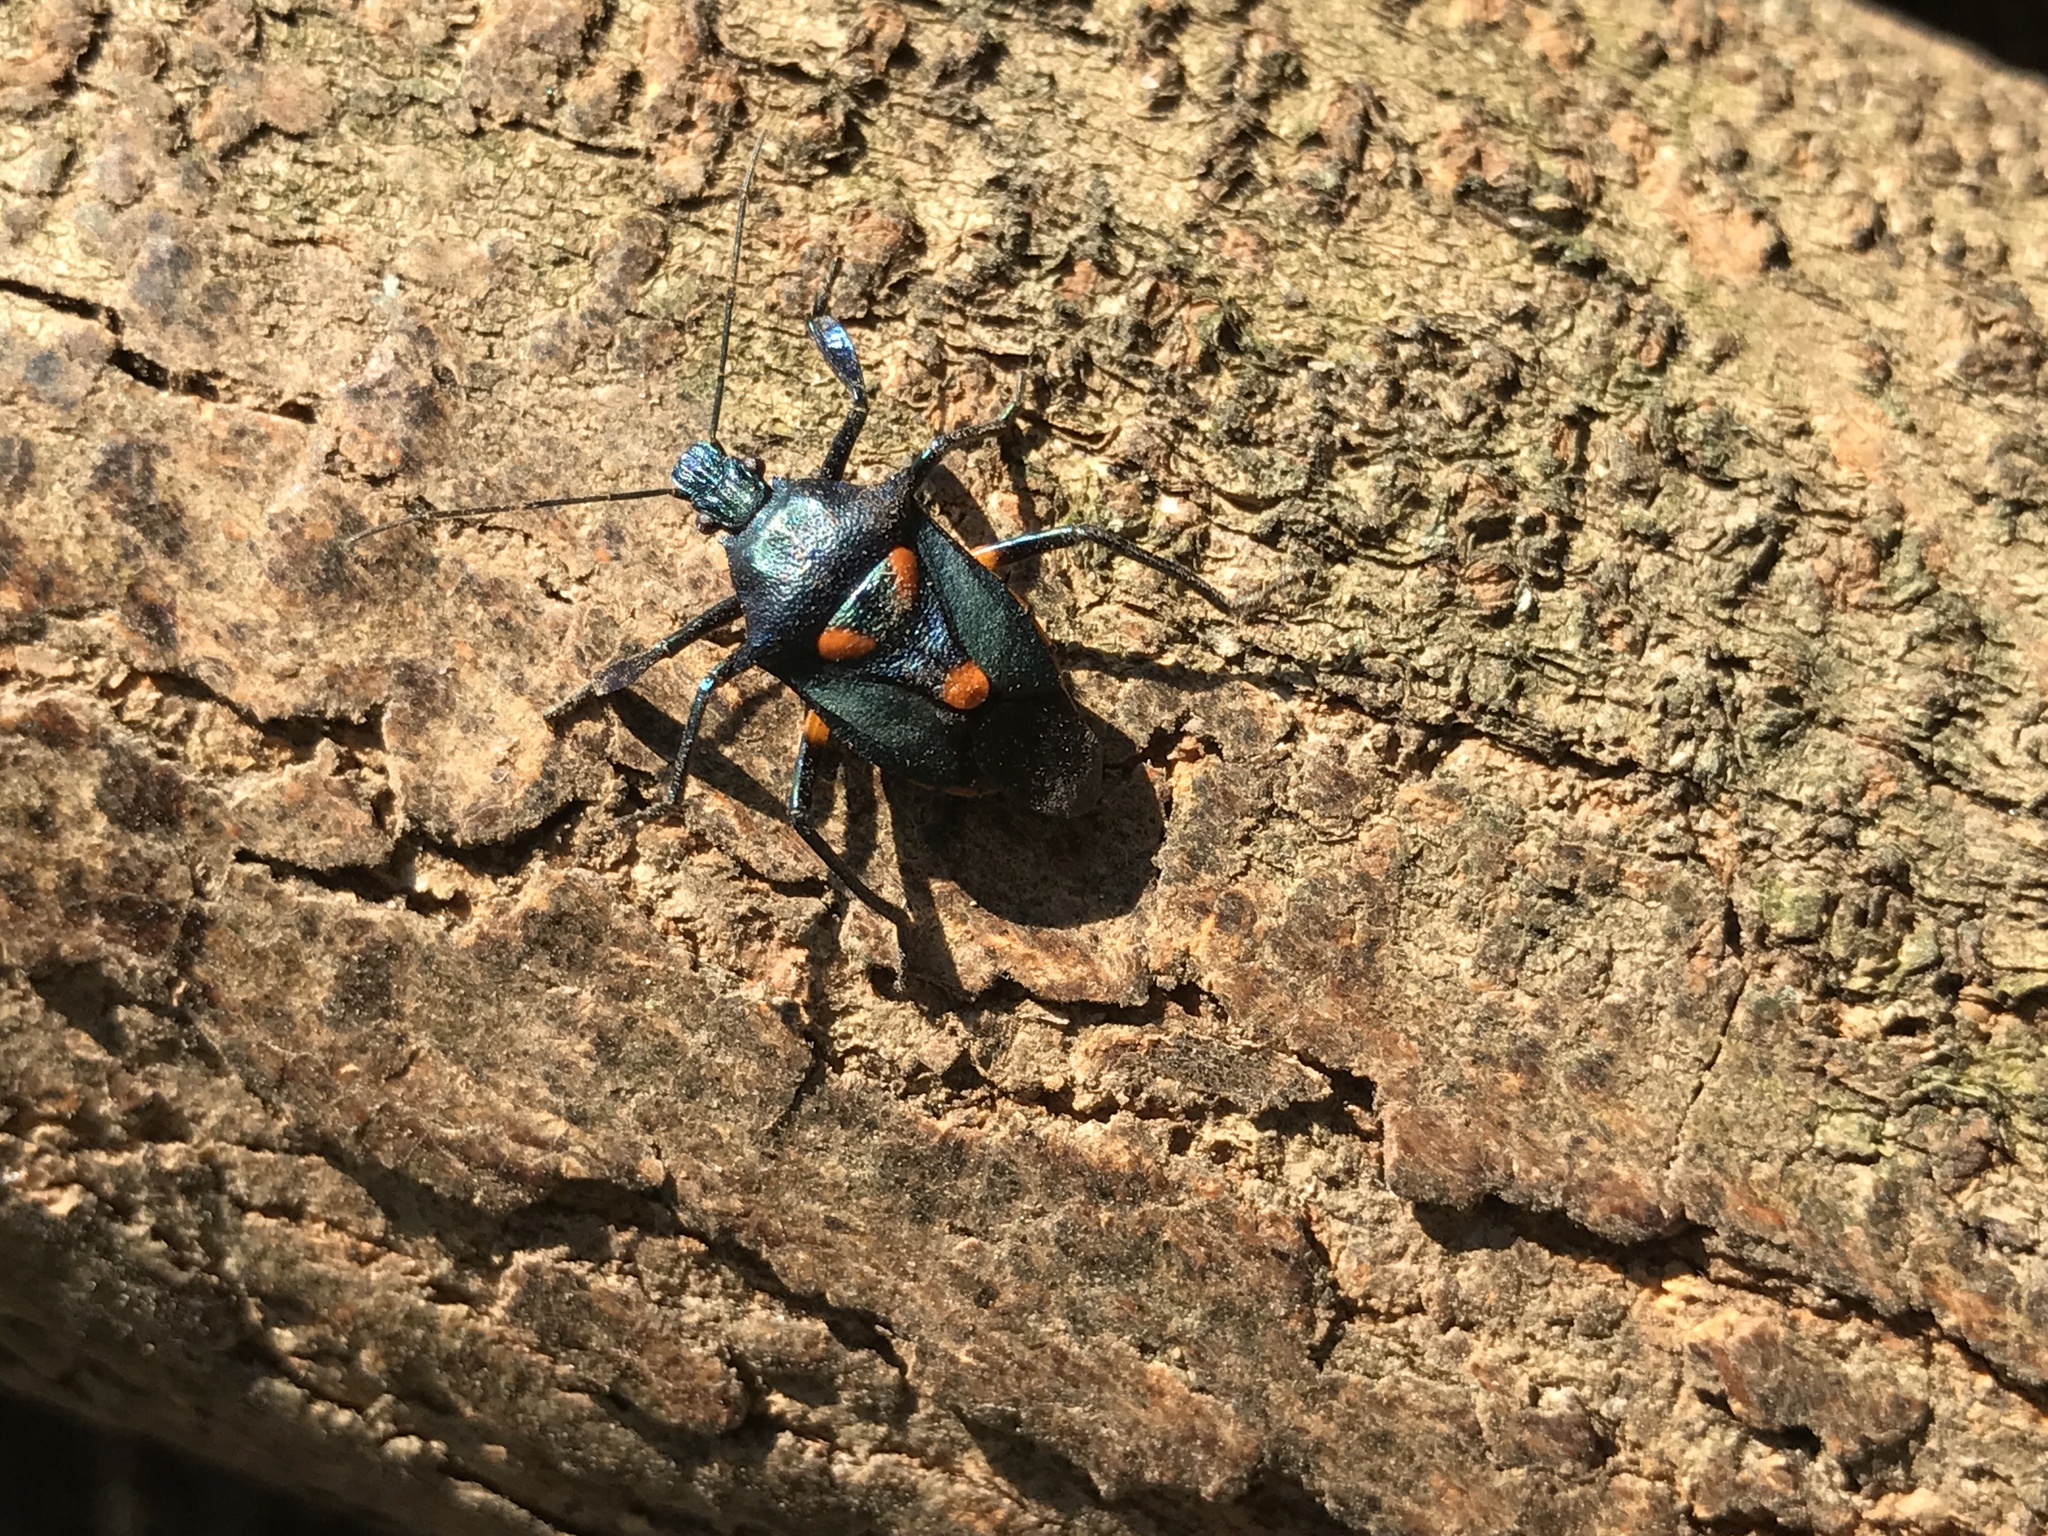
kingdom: Animalia
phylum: Arthropoda
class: Insecta
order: Hemiptera
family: Pentatomidae
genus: Euthyrhynchus
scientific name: Euthyrhynchus floridanus
